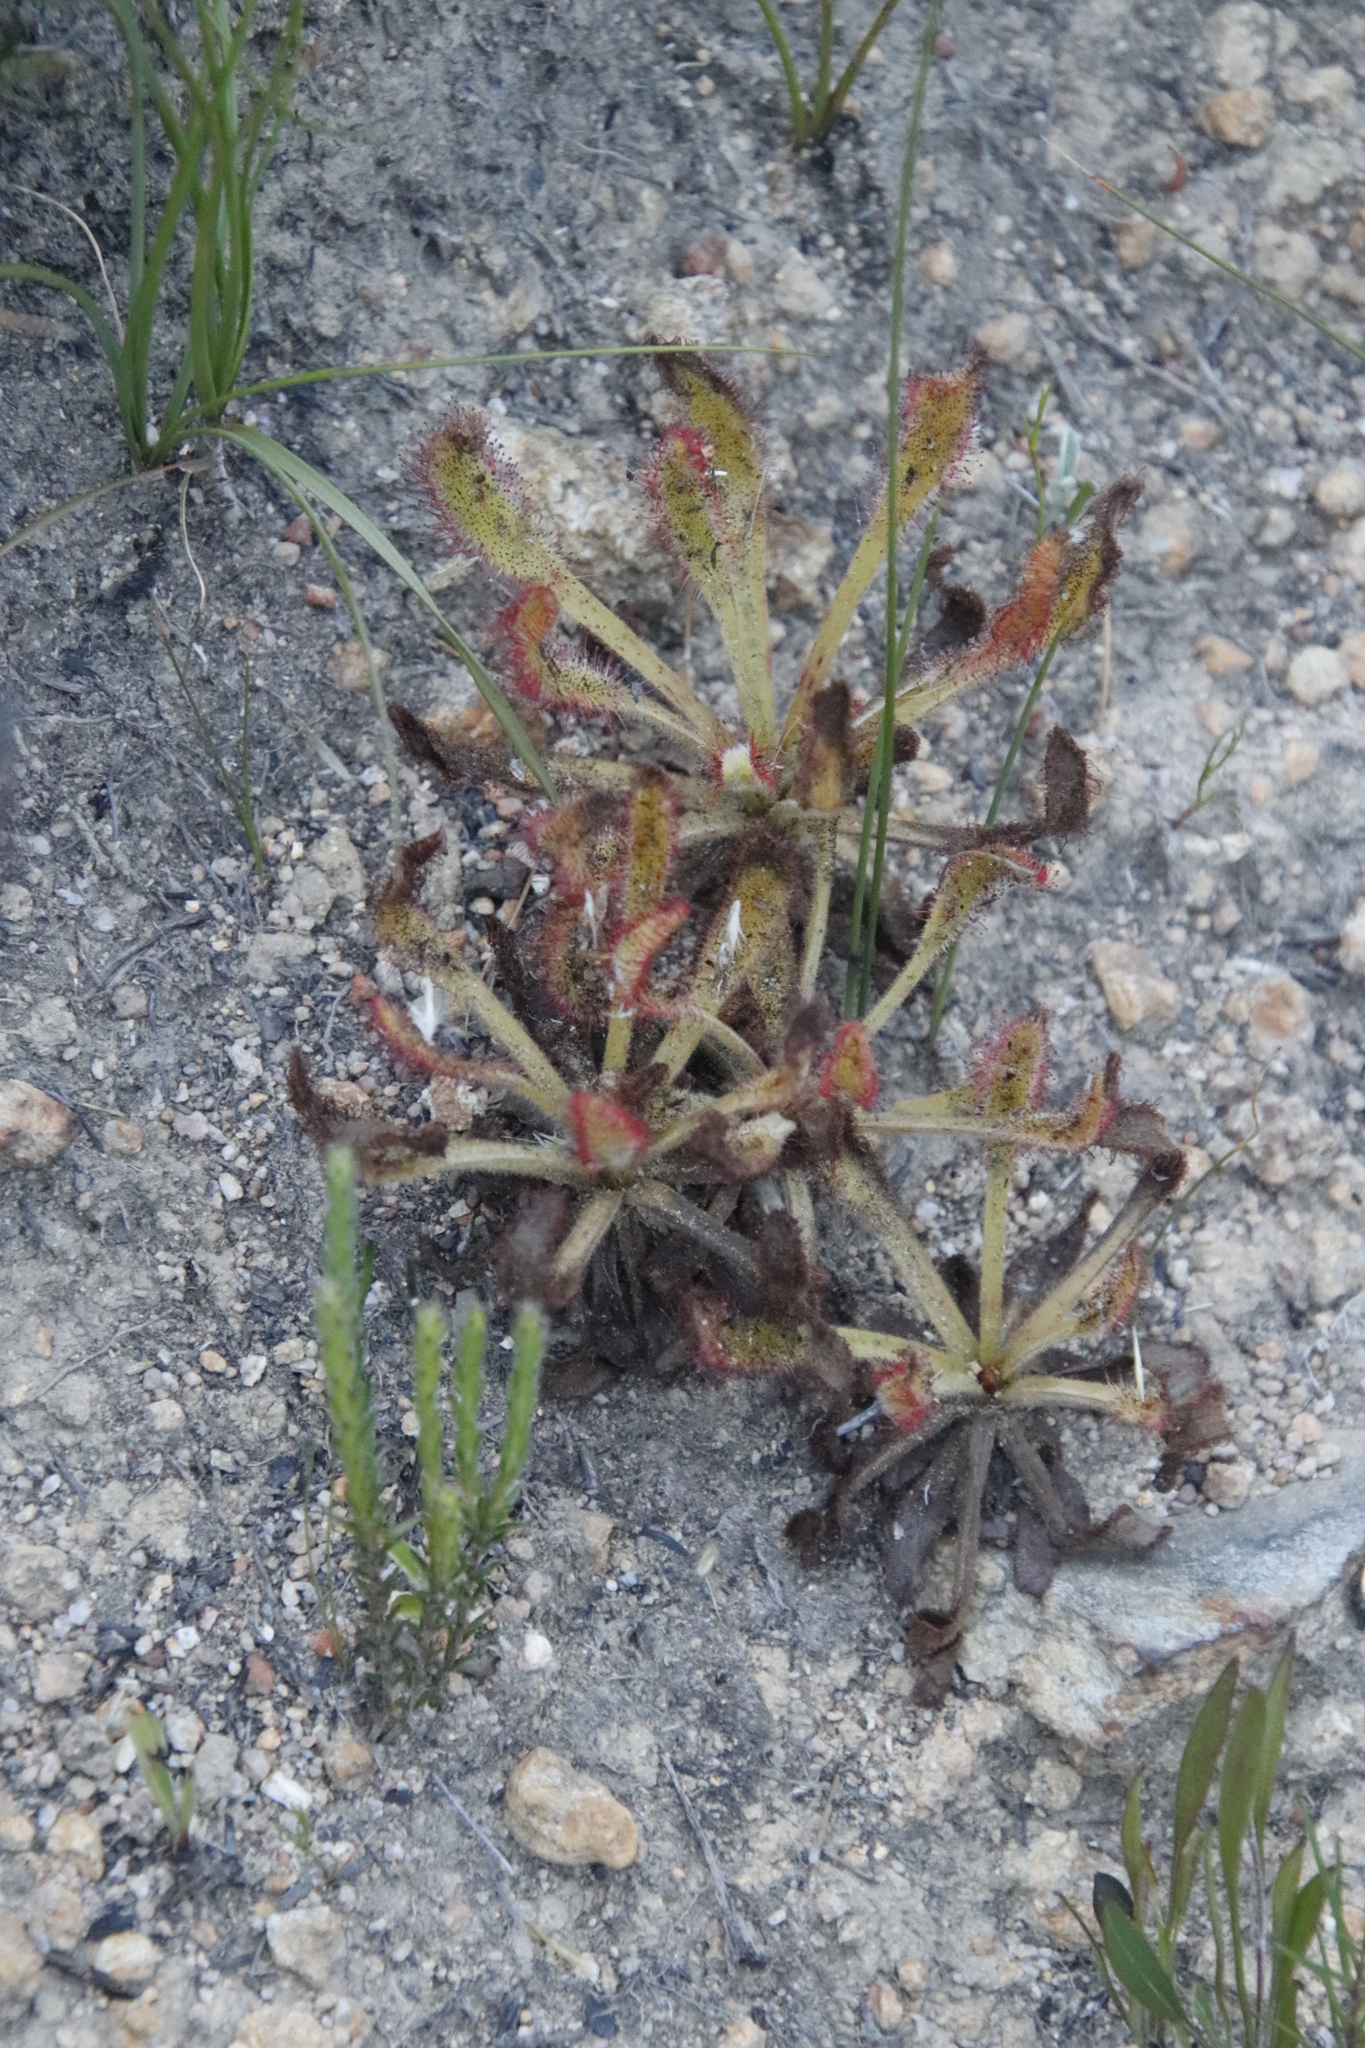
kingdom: Plantae
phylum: Tracheophyta
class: Magnoliopsida
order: Caryophyllales
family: Droseraceae
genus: Drosera
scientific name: Drosera hilaris
